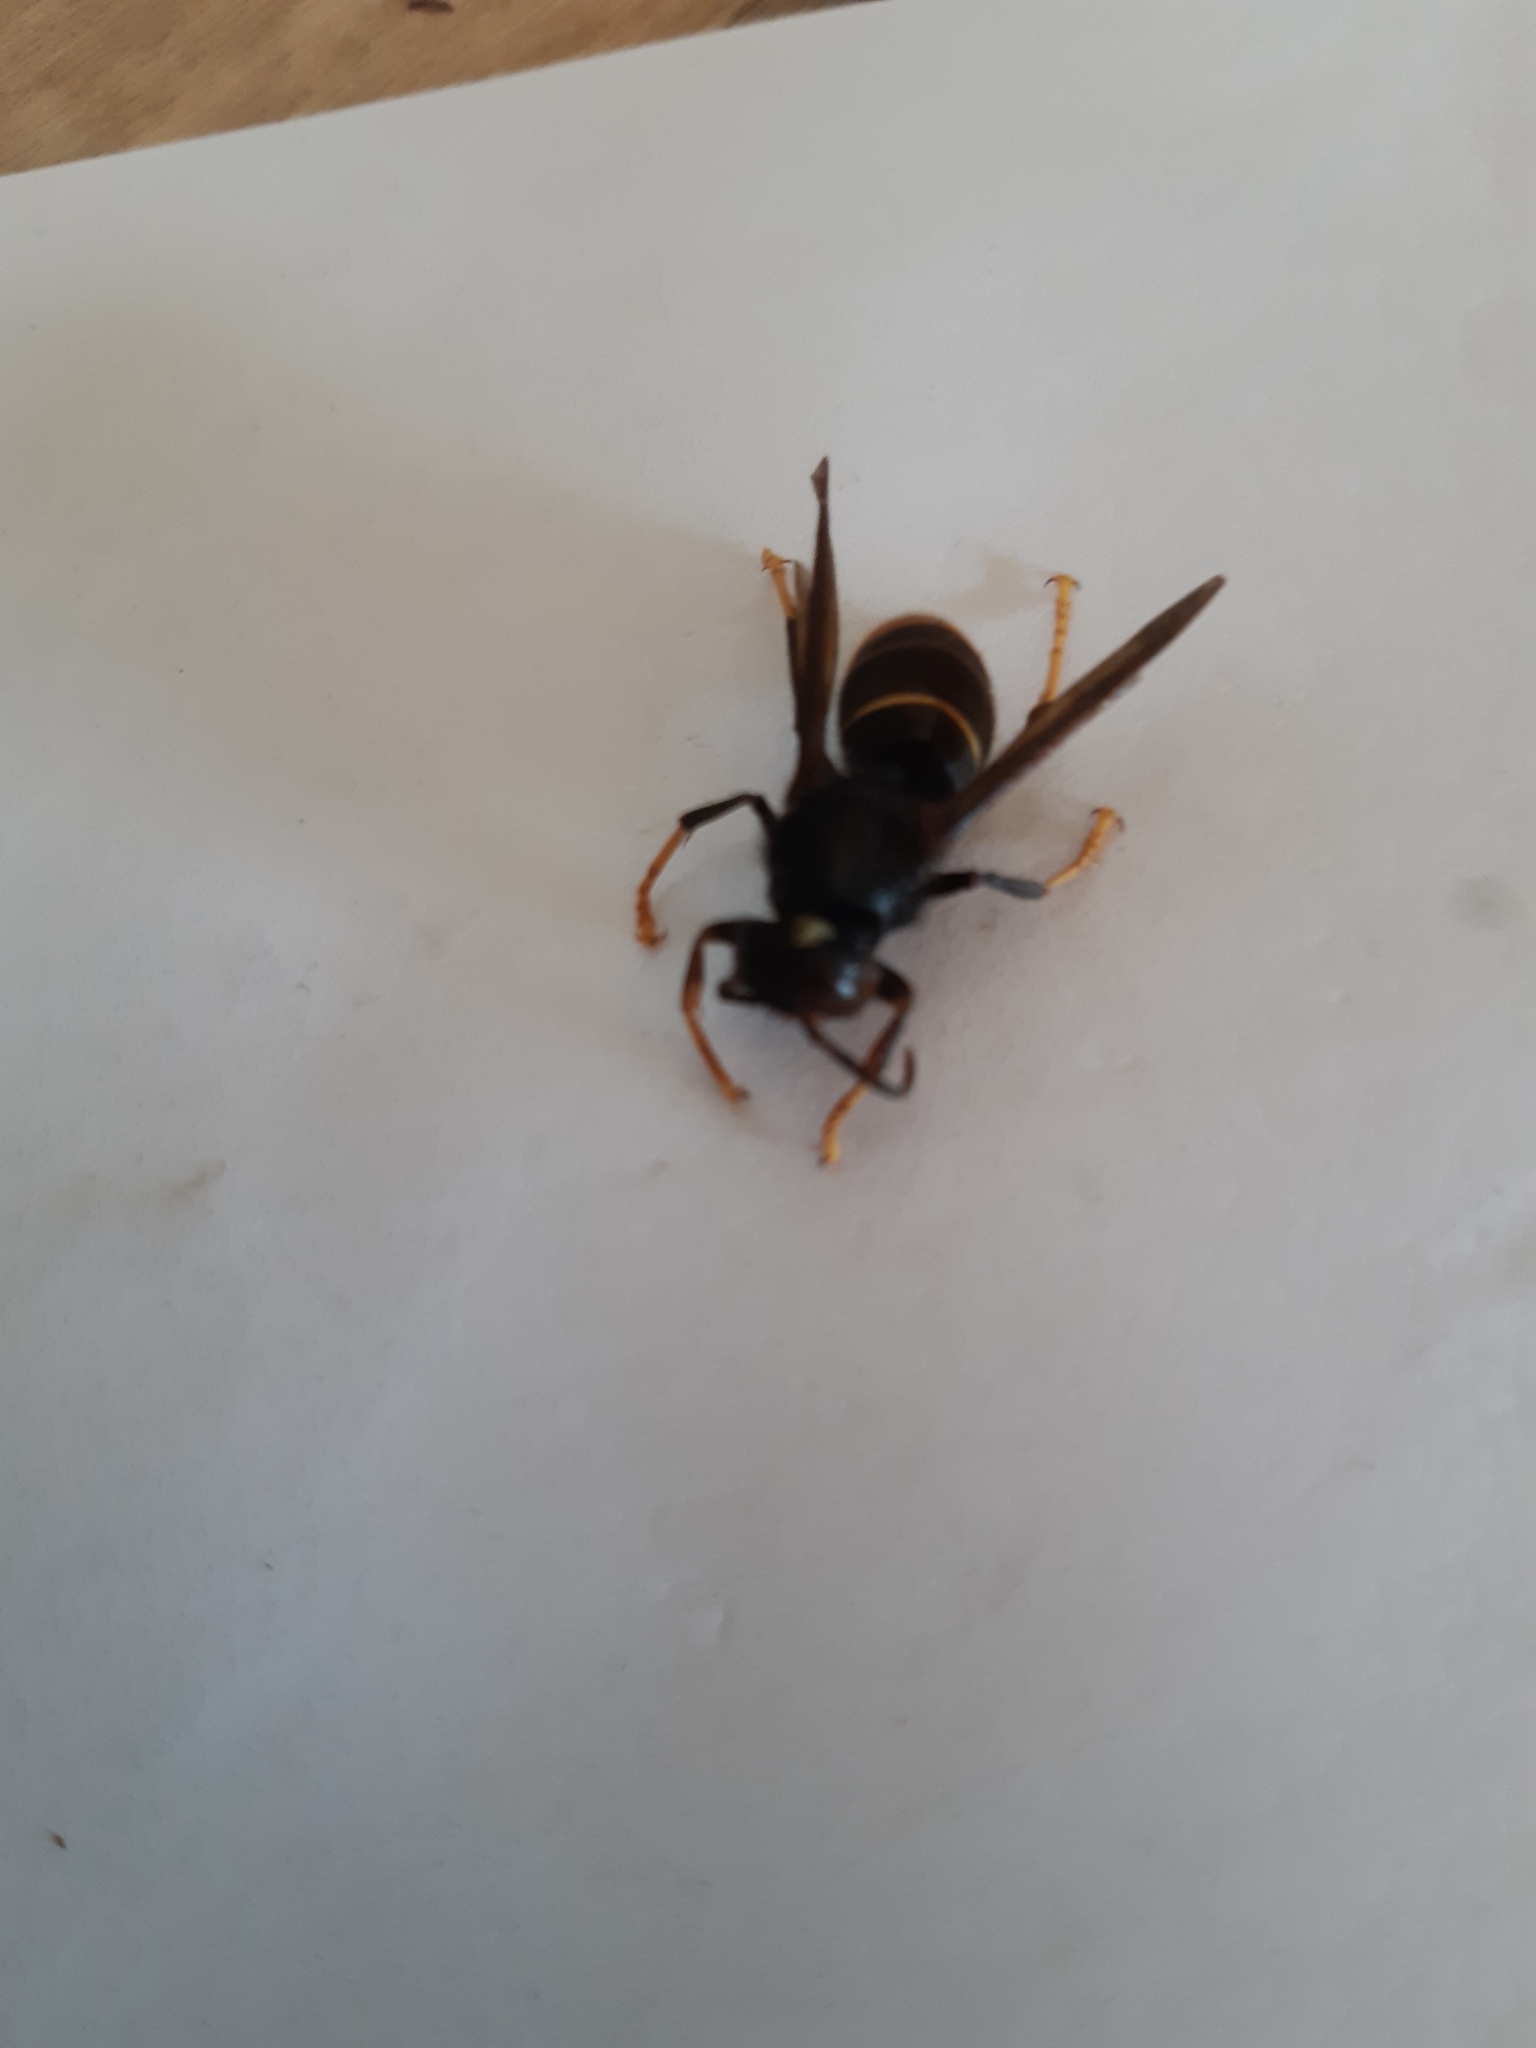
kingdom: Animalia
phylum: Arthropoda
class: Insecta
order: Hymenoptera
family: Vespidae
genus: Vespa
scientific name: Vespa velutina
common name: Asian hornet
